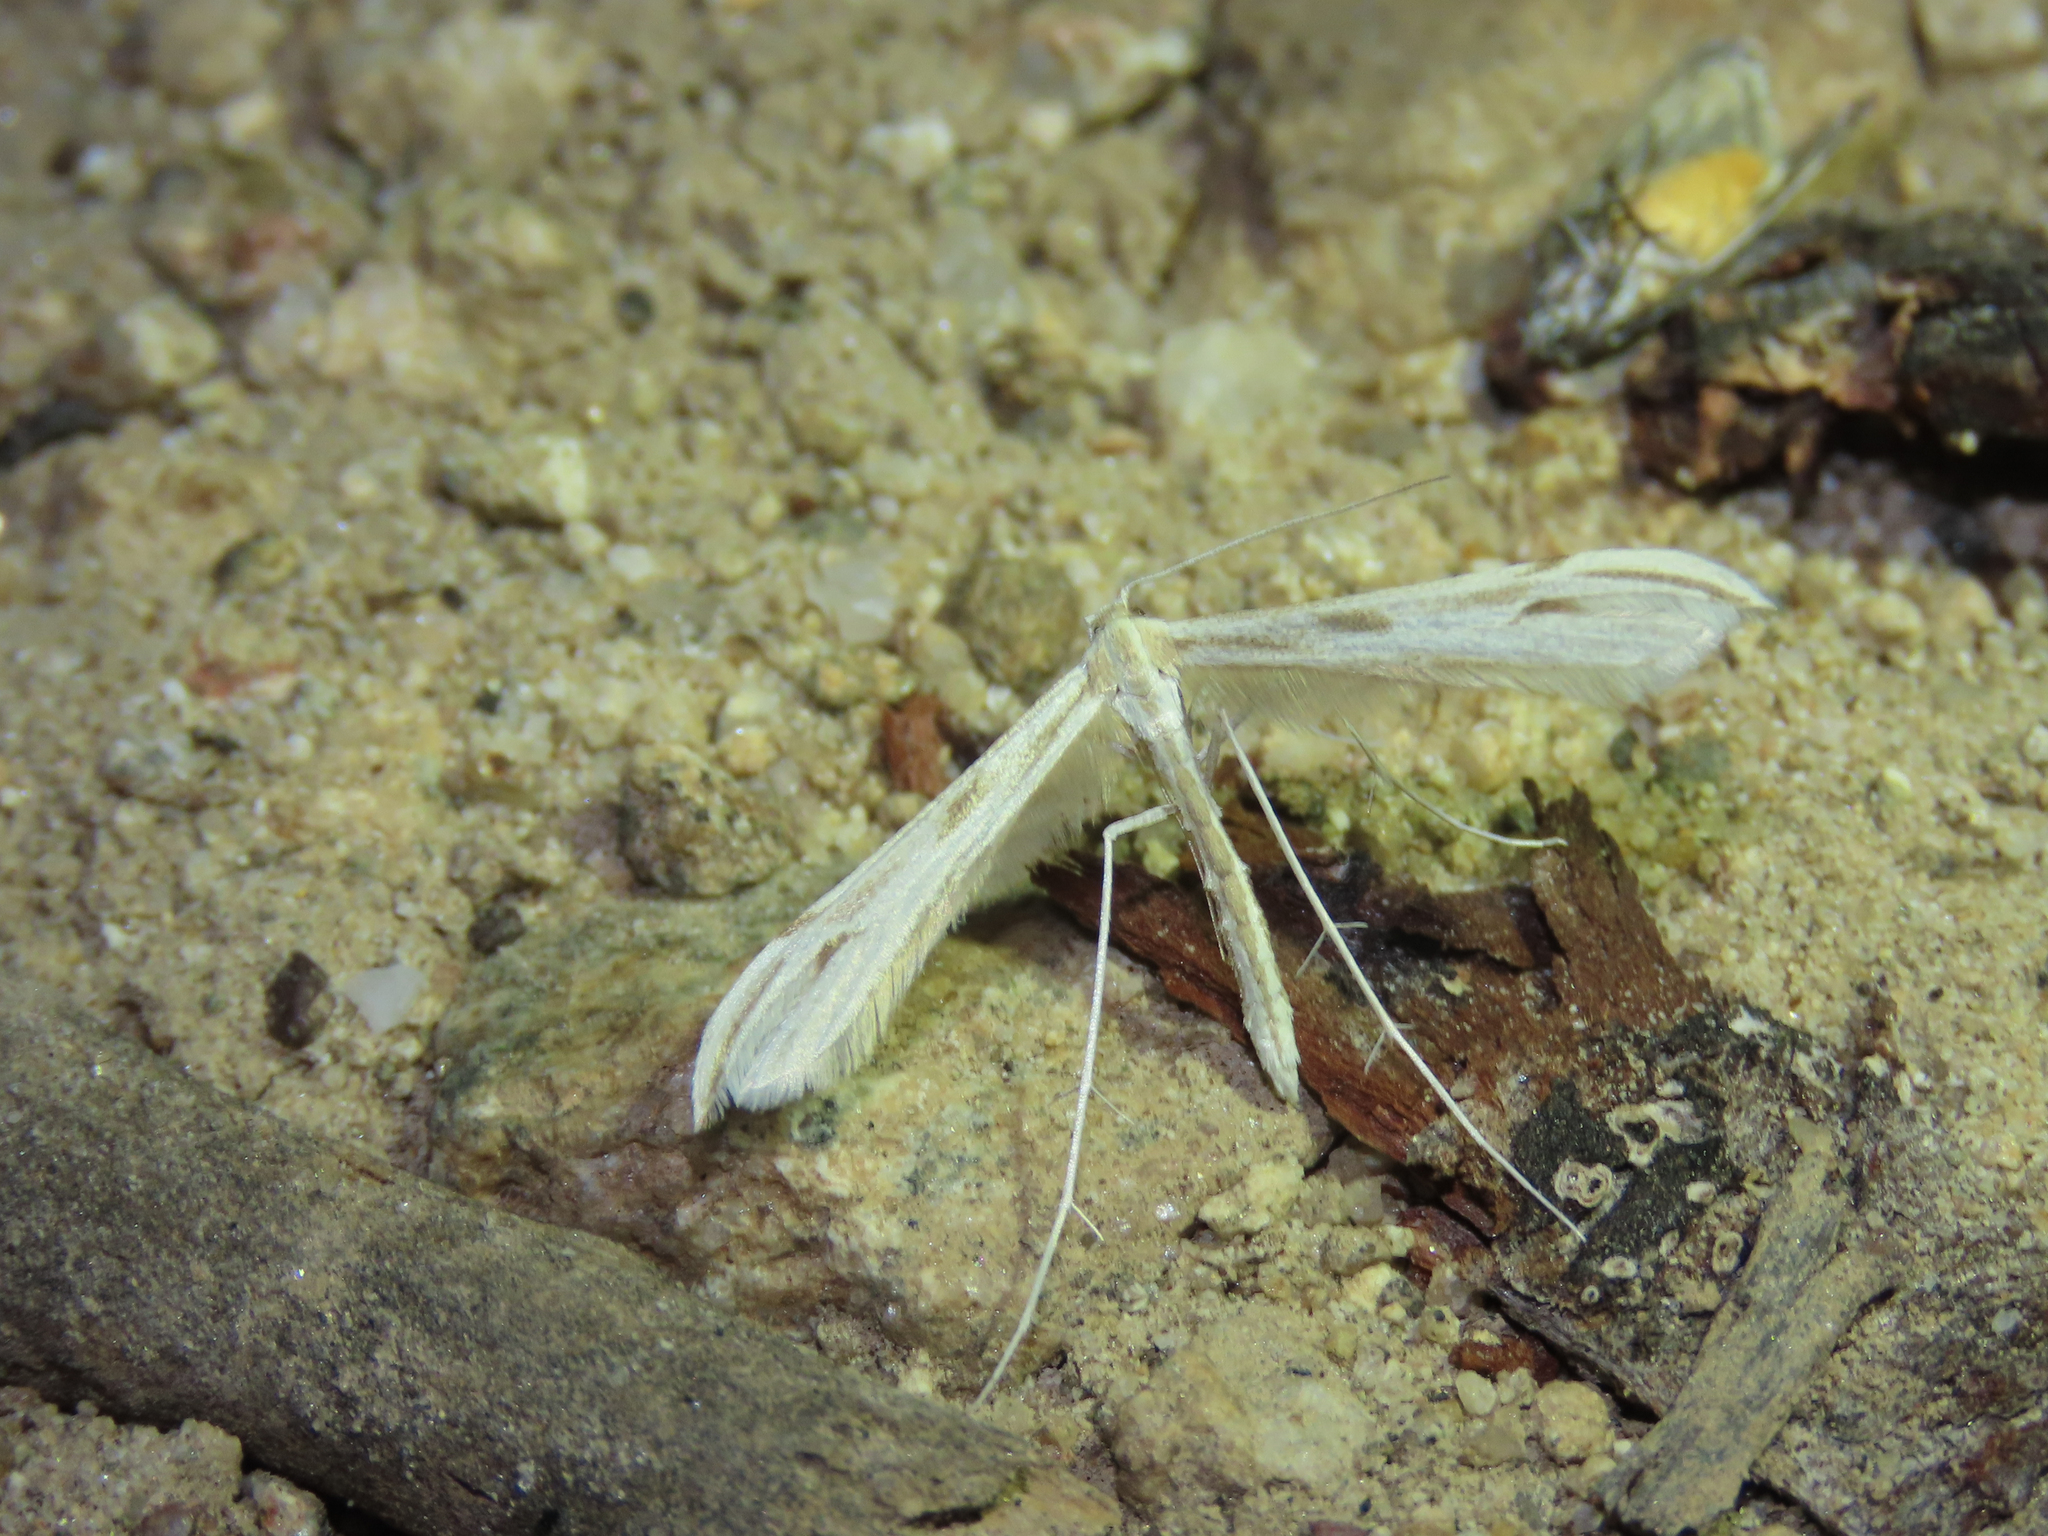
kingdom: Animalia
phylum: Arthropoda
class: Insecta
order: Lepidoptera
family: Pterophoridae
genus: Hellinsia
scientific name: Hellinsia hoguei
